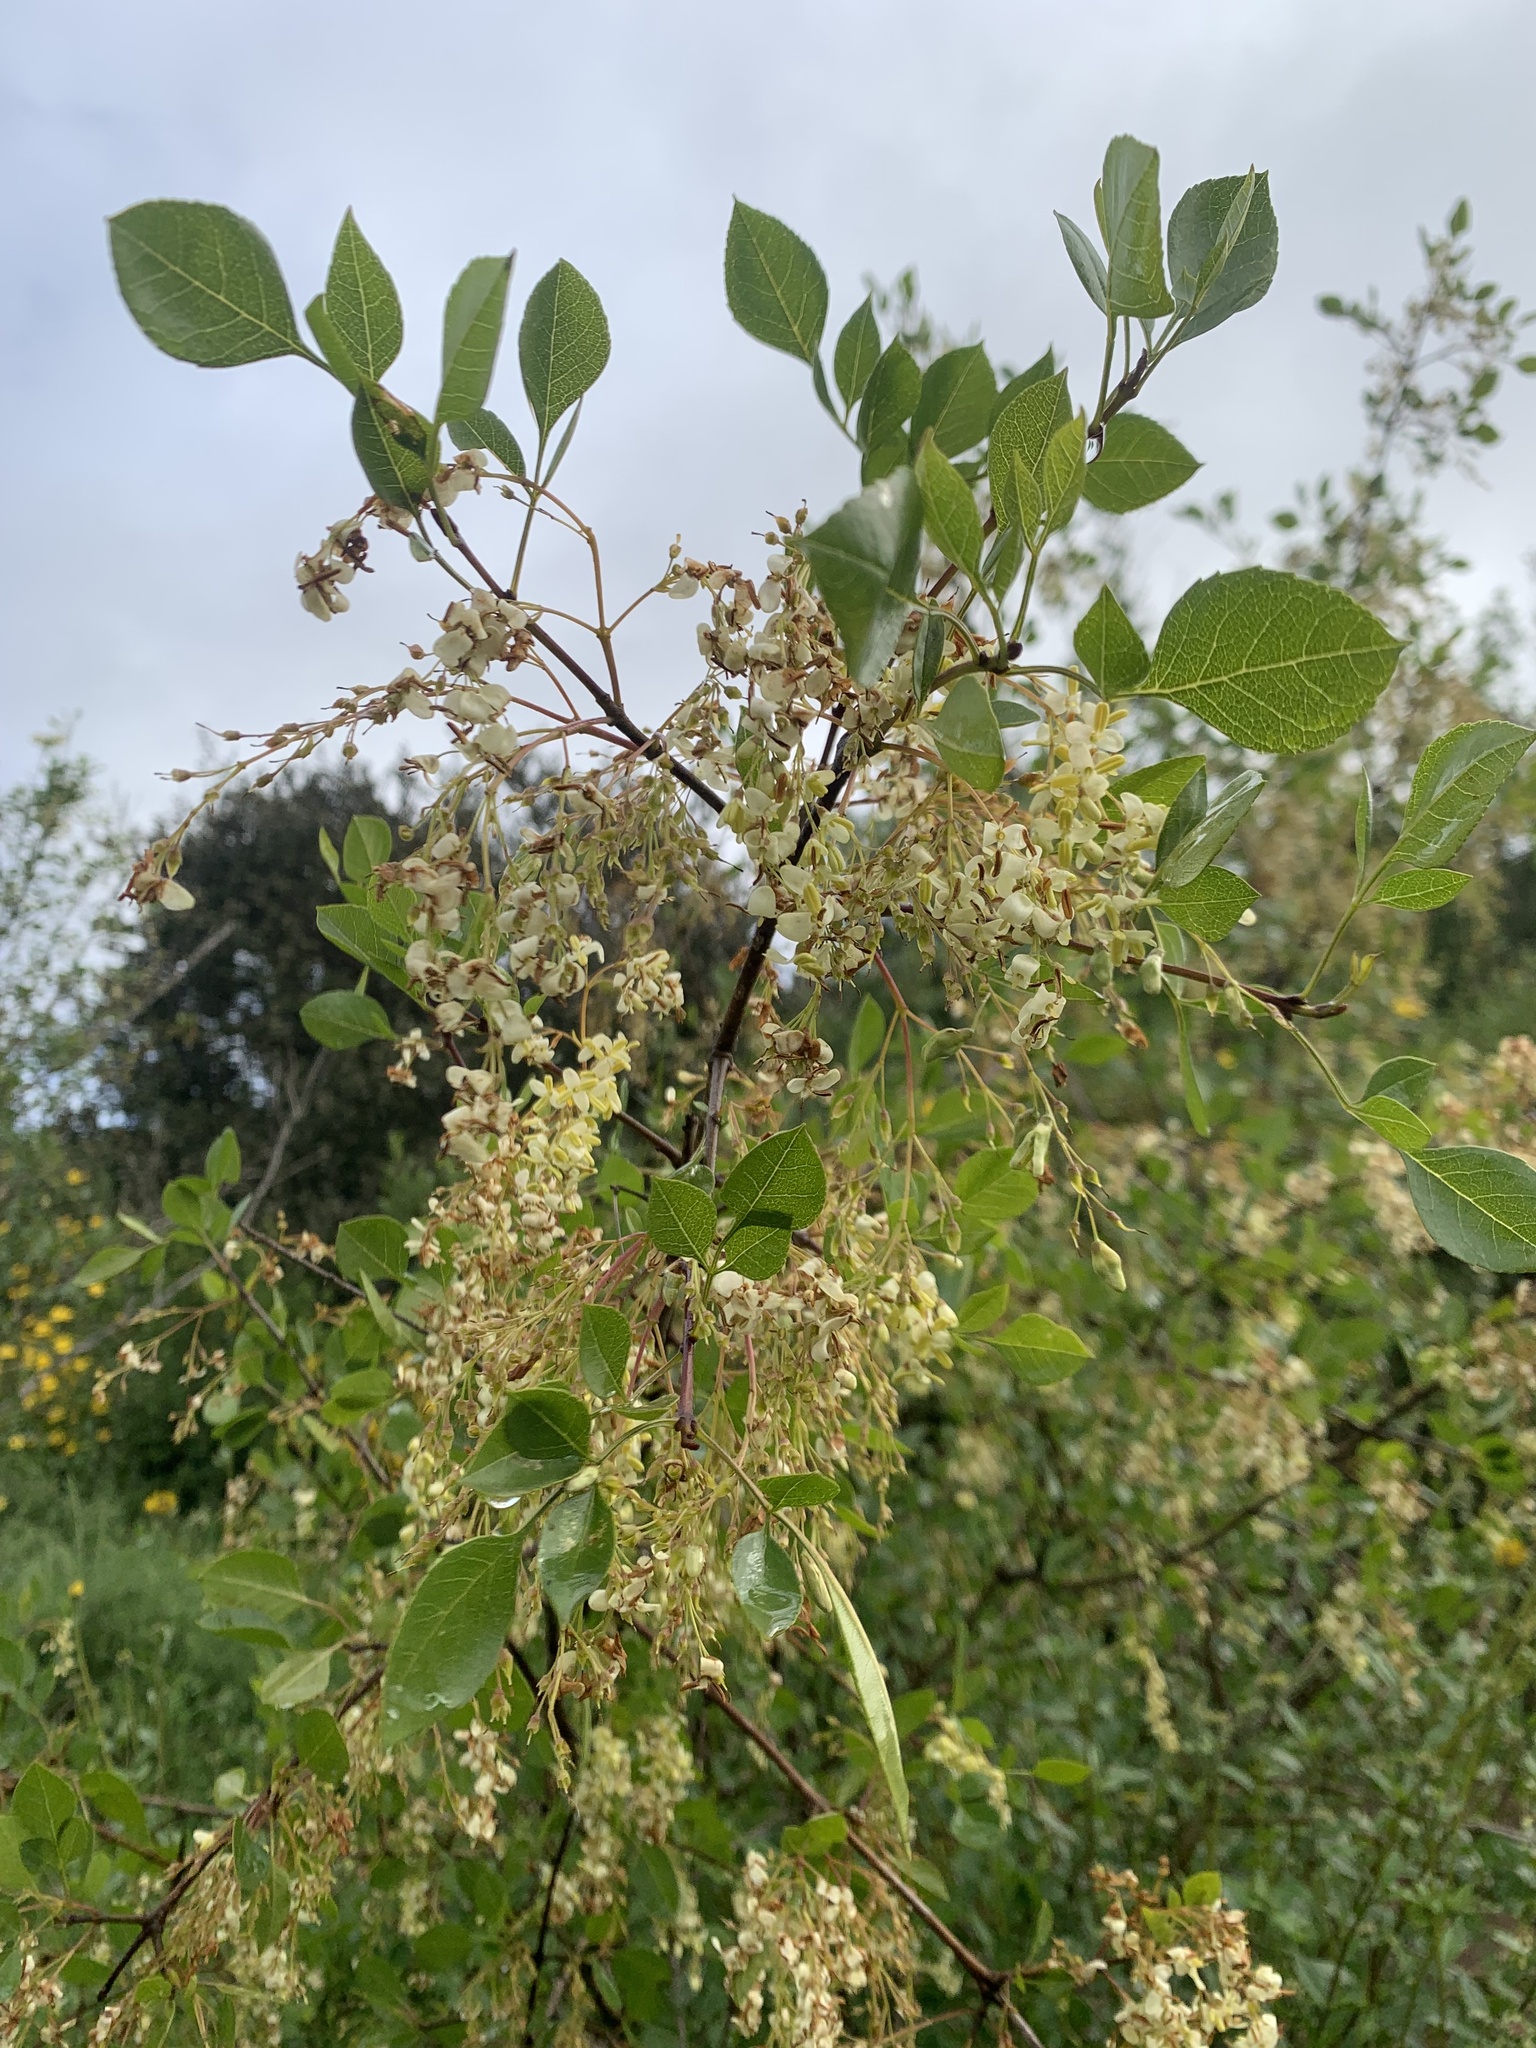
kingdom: Plantae
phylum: Tracheophyta
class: Magnoliopsida
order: Lamiales
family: Oleaceae
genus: Fraxinus
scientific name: Fraxinus dipetala
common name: California ash
